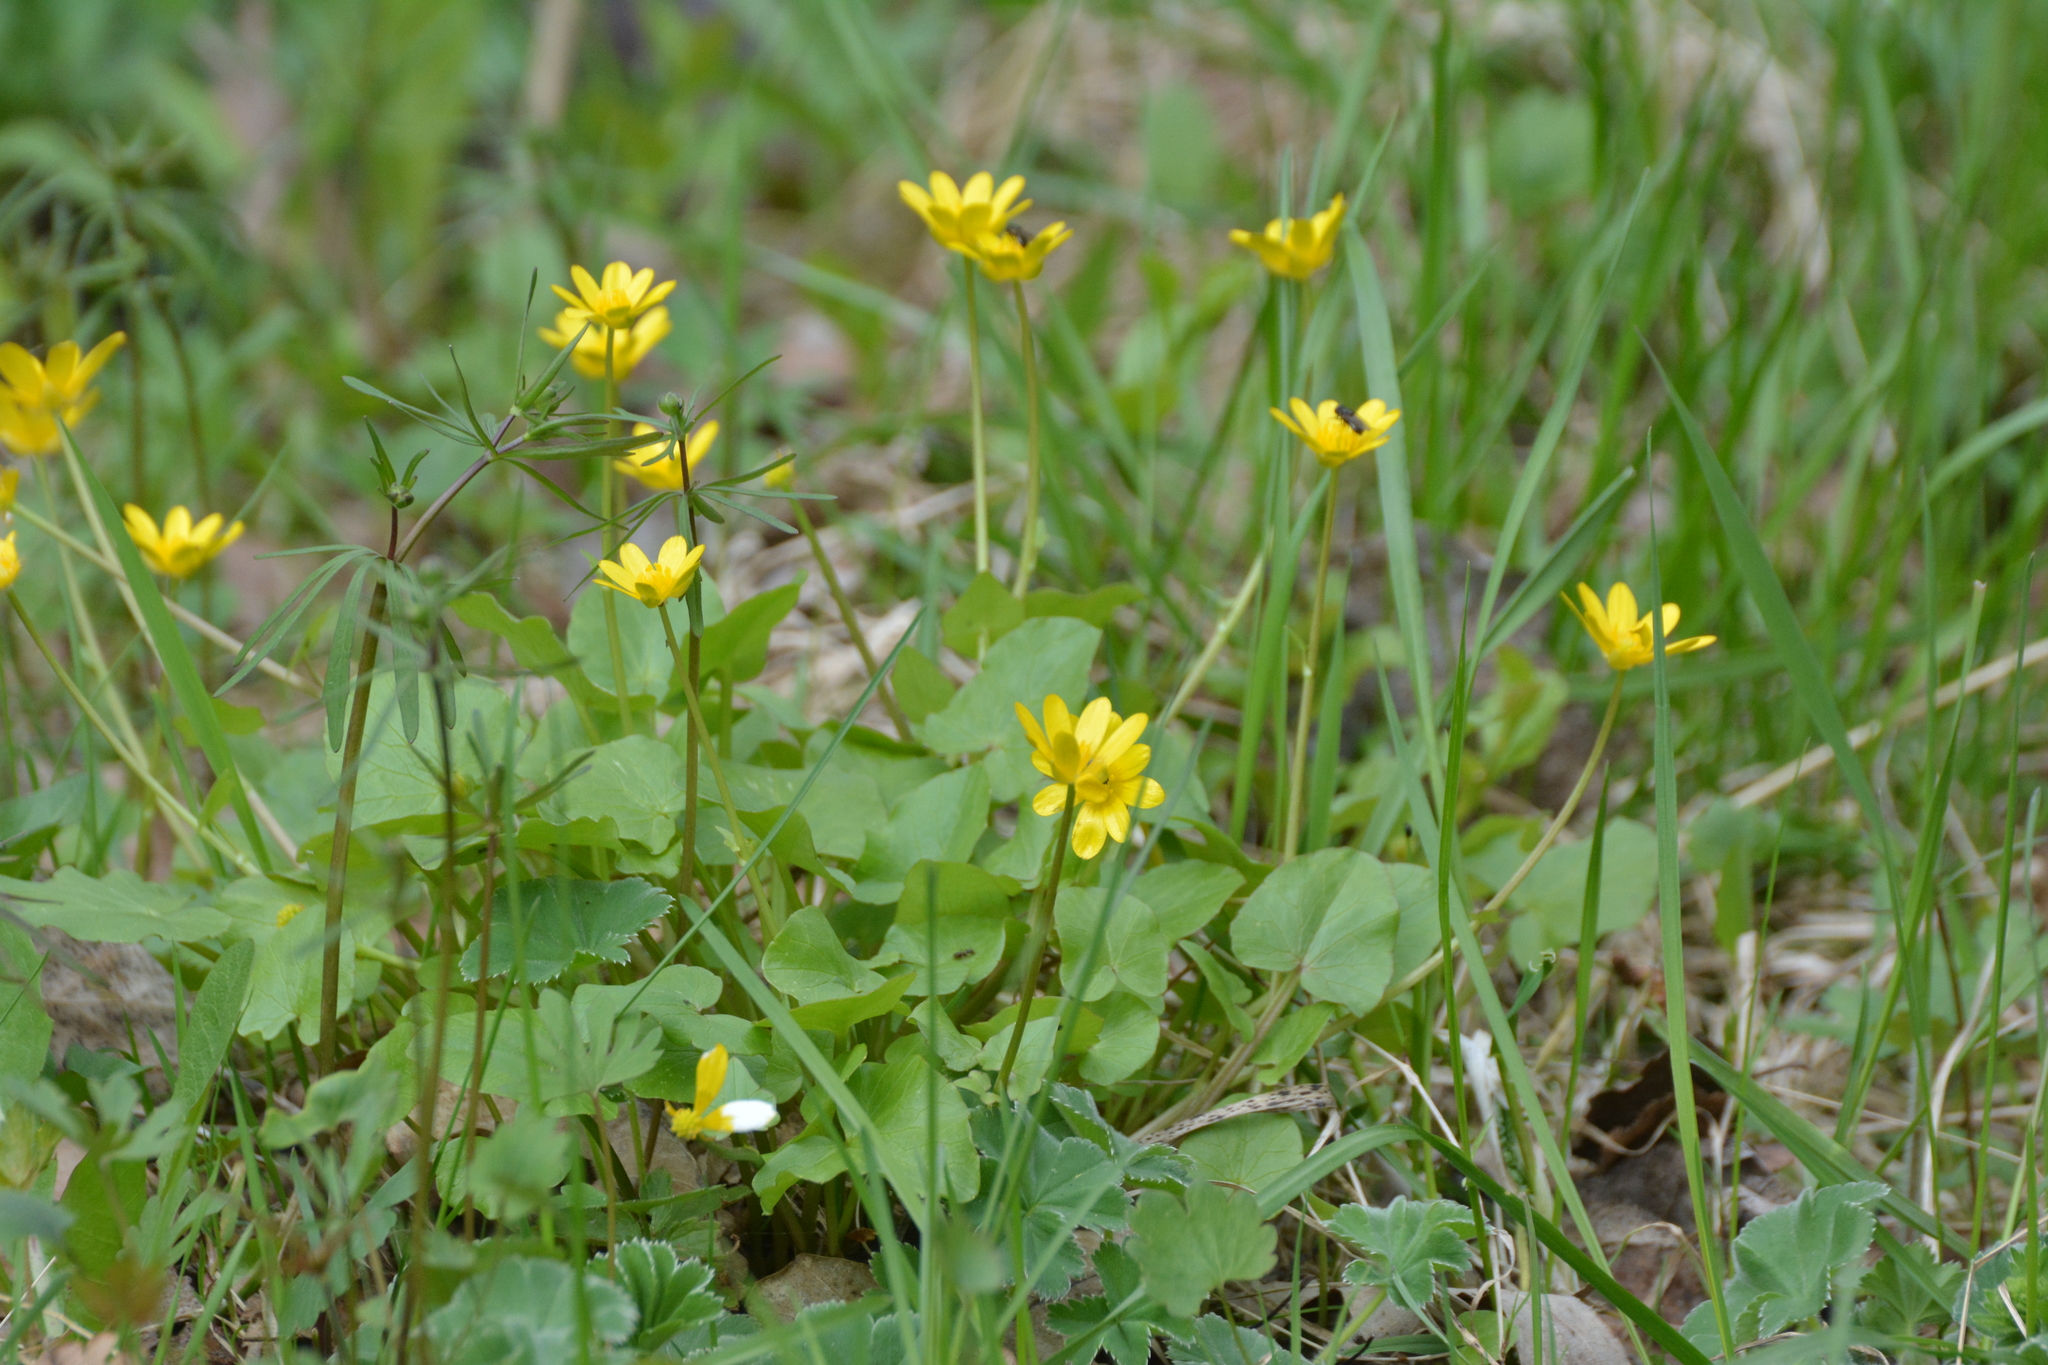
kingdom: Plantae
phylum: Tracheophyta
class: Magnoliopsida
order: Ranunculales
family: Ranunculaceae
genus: Ficaria
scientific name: Ficaria verna
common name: Lesser celandine
